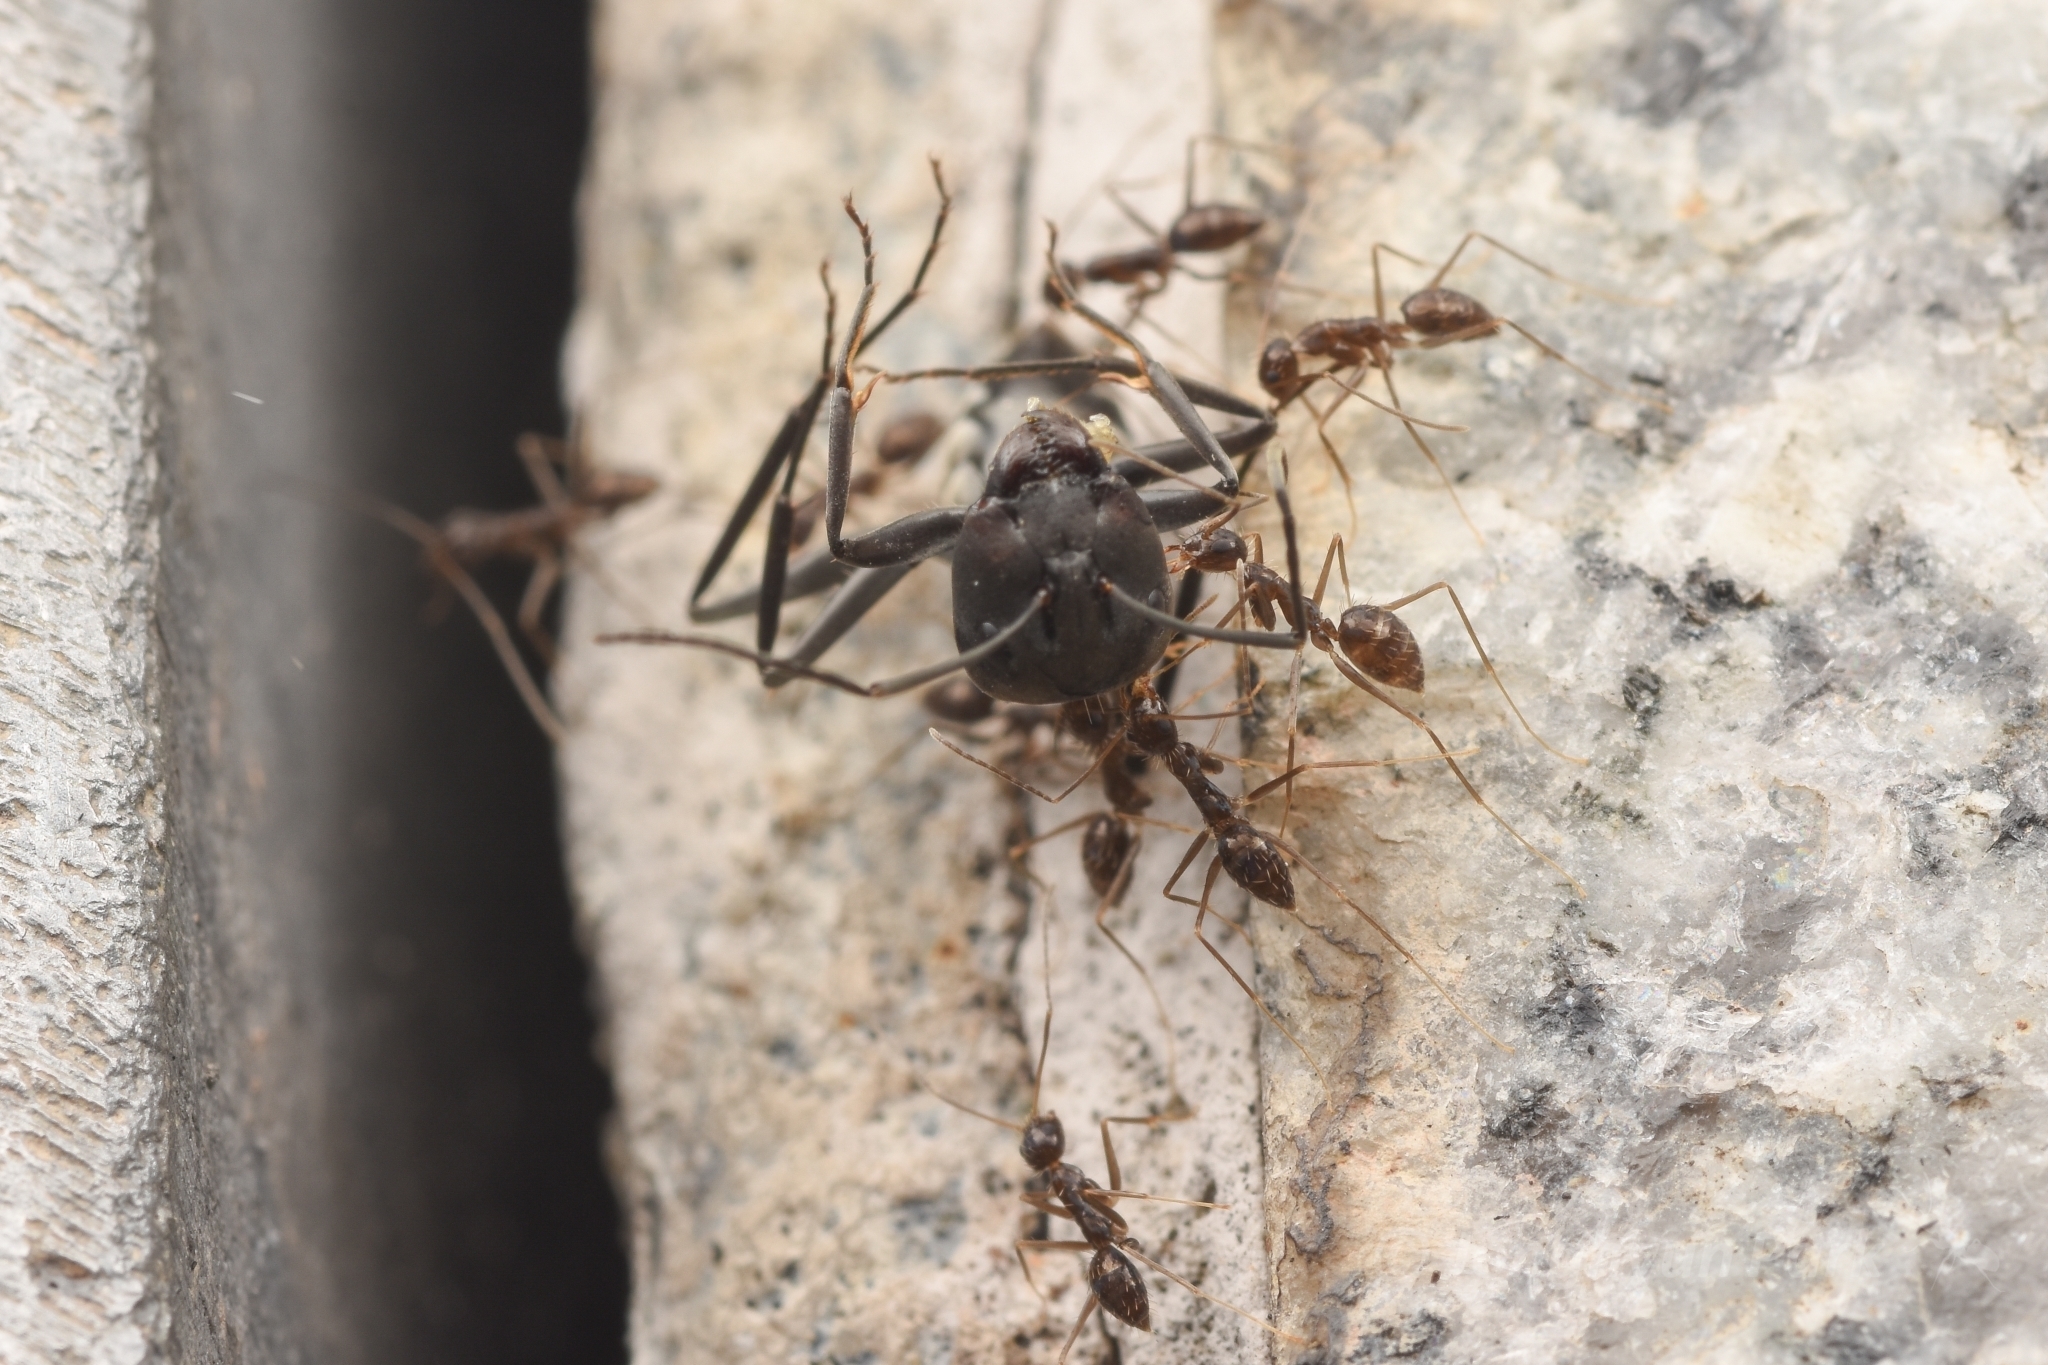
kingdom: Animalia
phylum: Arthropoda
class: Insecta
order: Hymenoptera
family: Formicidae
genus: Paratrechina
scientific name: Paratrechina longicornis
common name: Longhorned crazy ant
